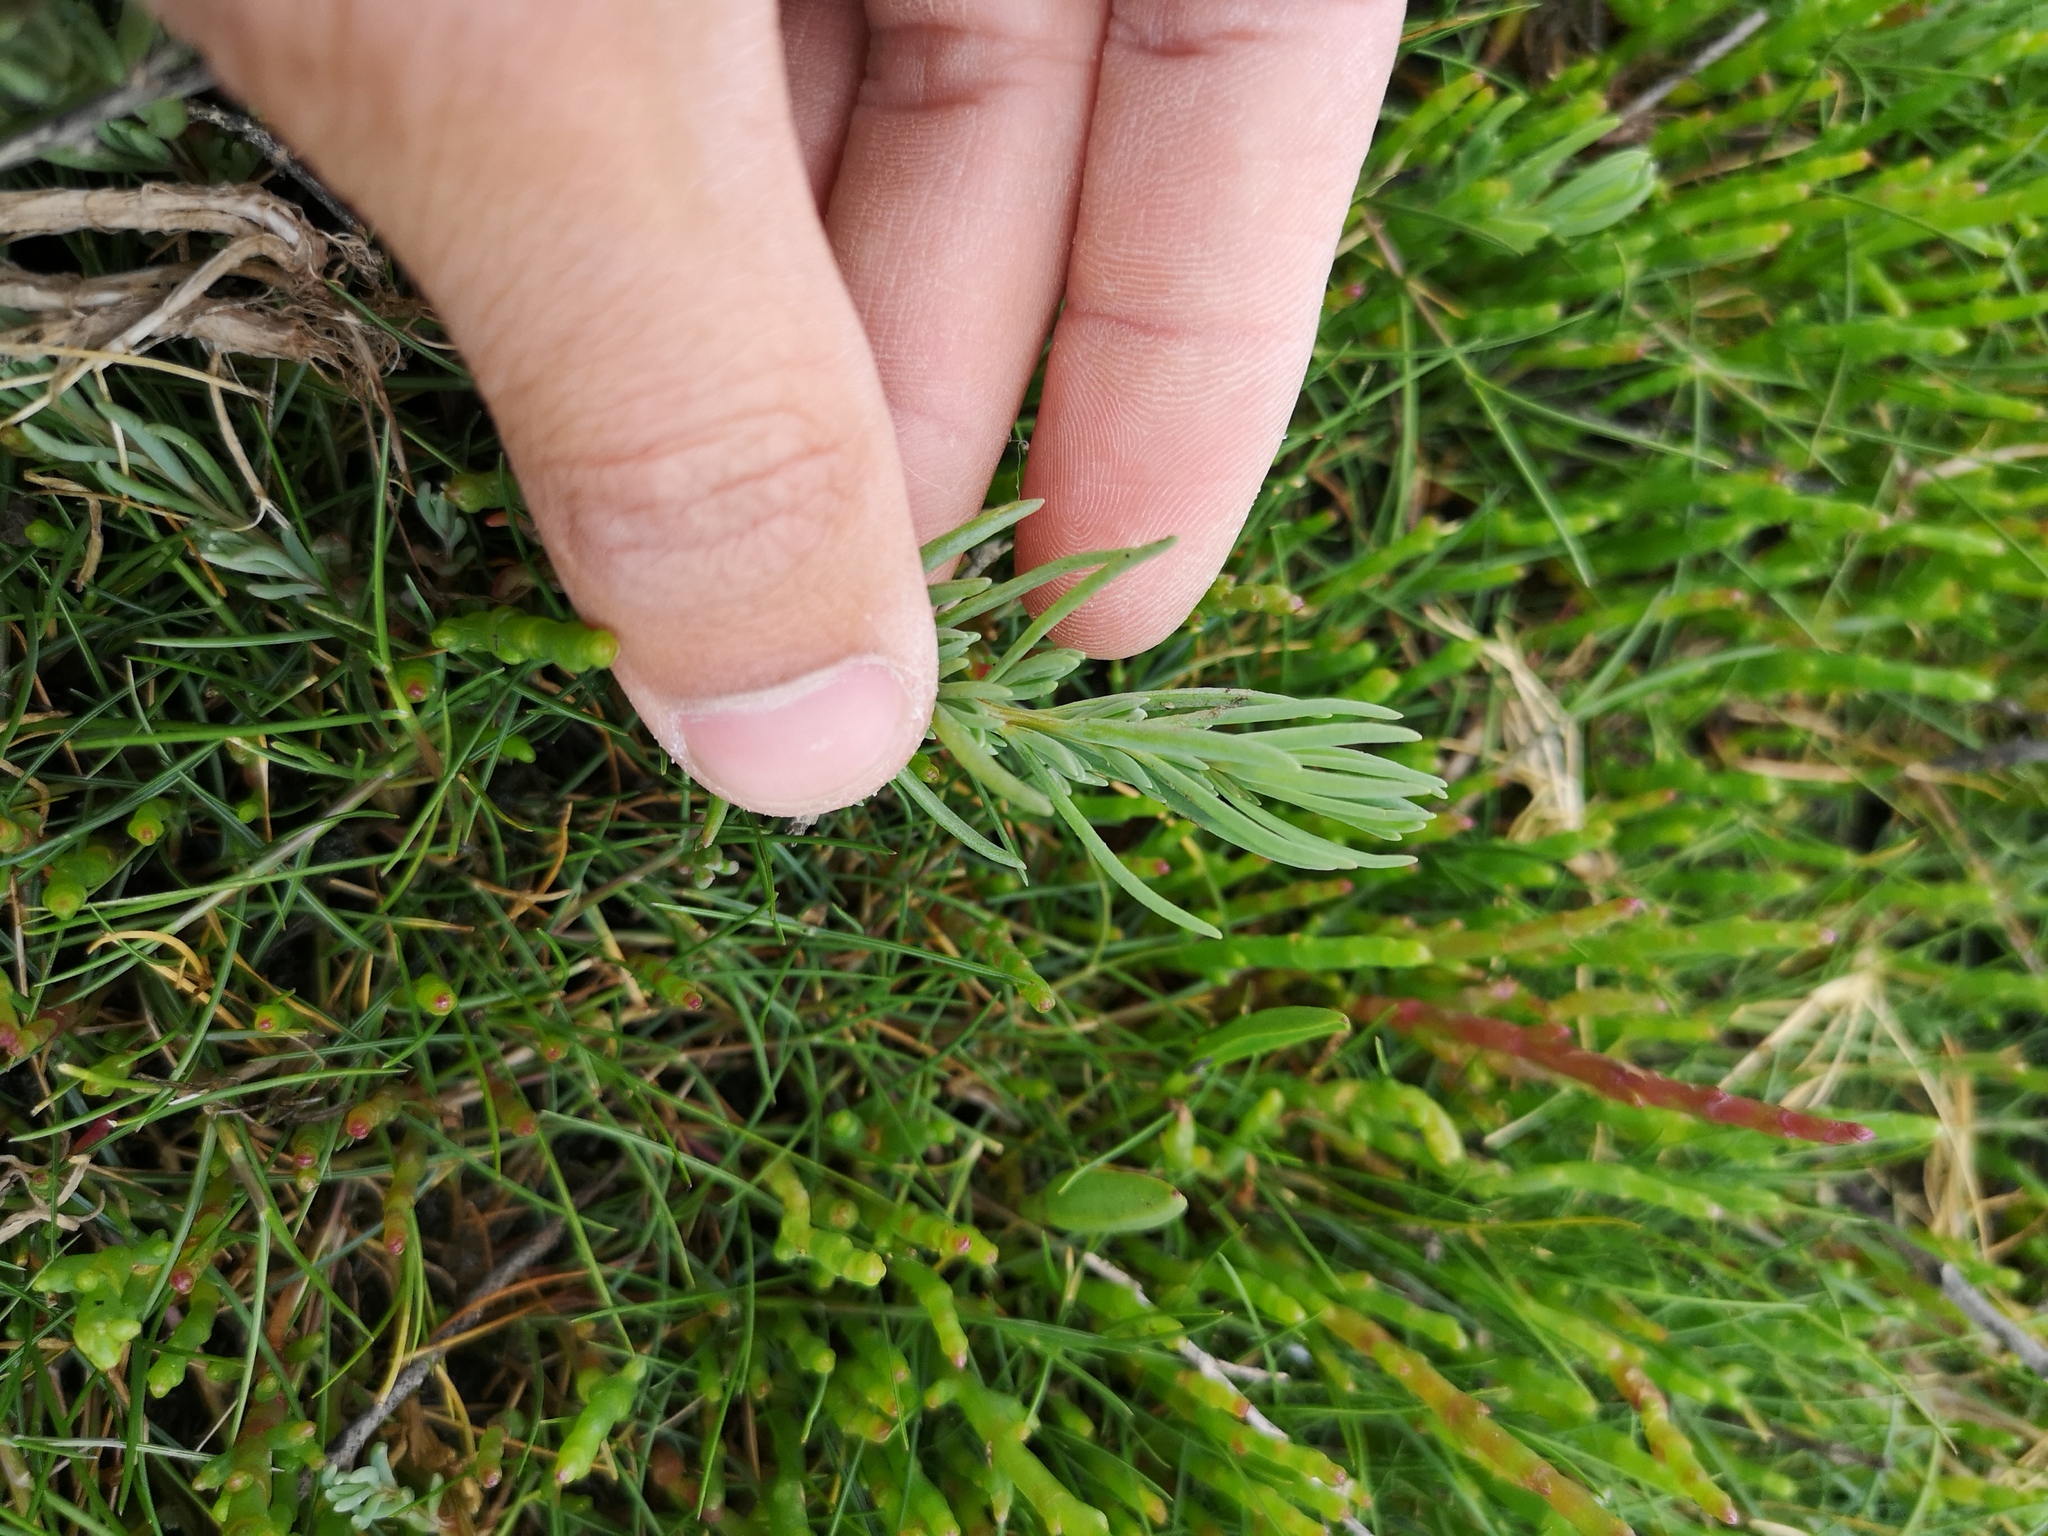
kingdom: Plantae
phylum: Tracheophyta
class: Magnoliopsida
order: Caryophyllales
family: Amaranthaceae
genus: Suaeda
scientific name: Suaeda maritima
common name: Annual sea-blite
